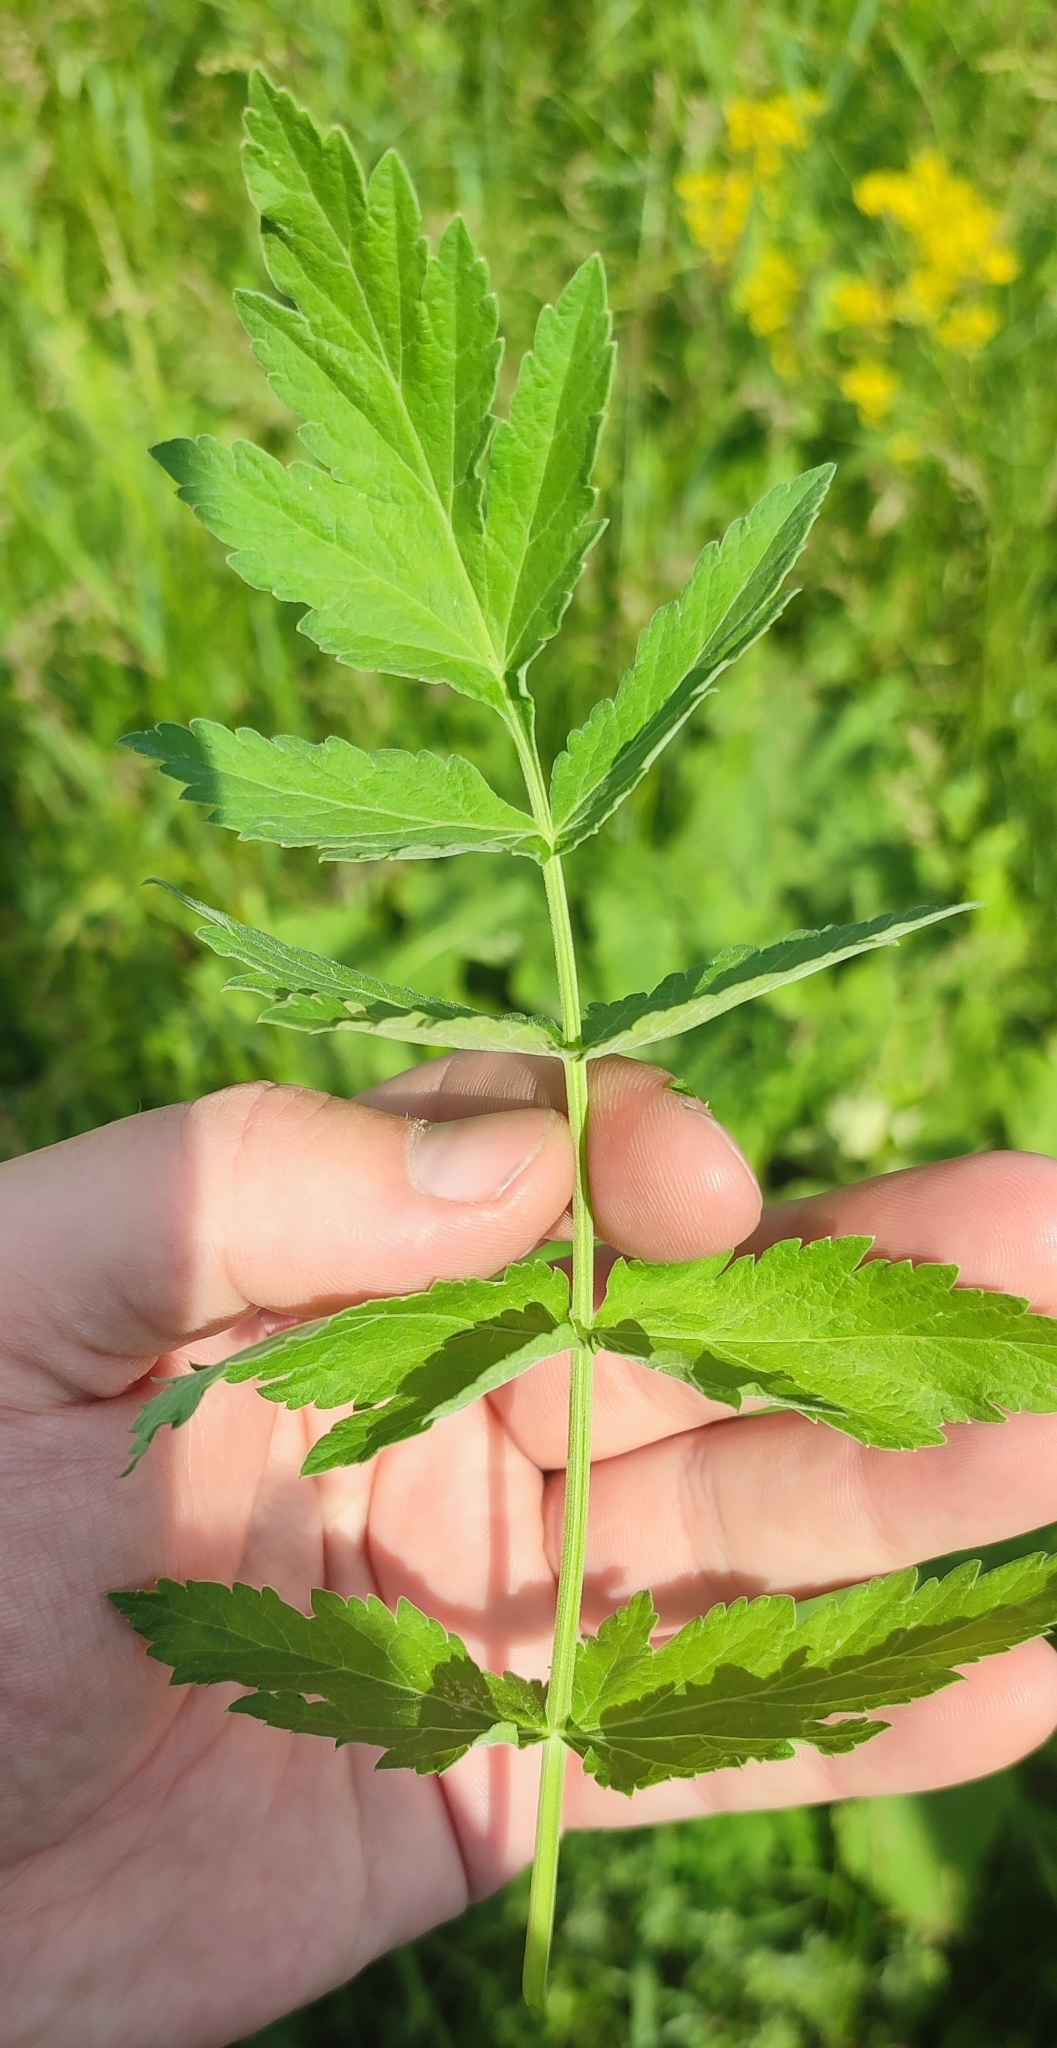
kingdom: Plantae
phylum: Tracheophyta
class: Magnoliopsida
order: Apiales
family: Apiaceae
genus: Pastinaca
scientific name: Pastinaca sativa
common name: Wild parsnip
